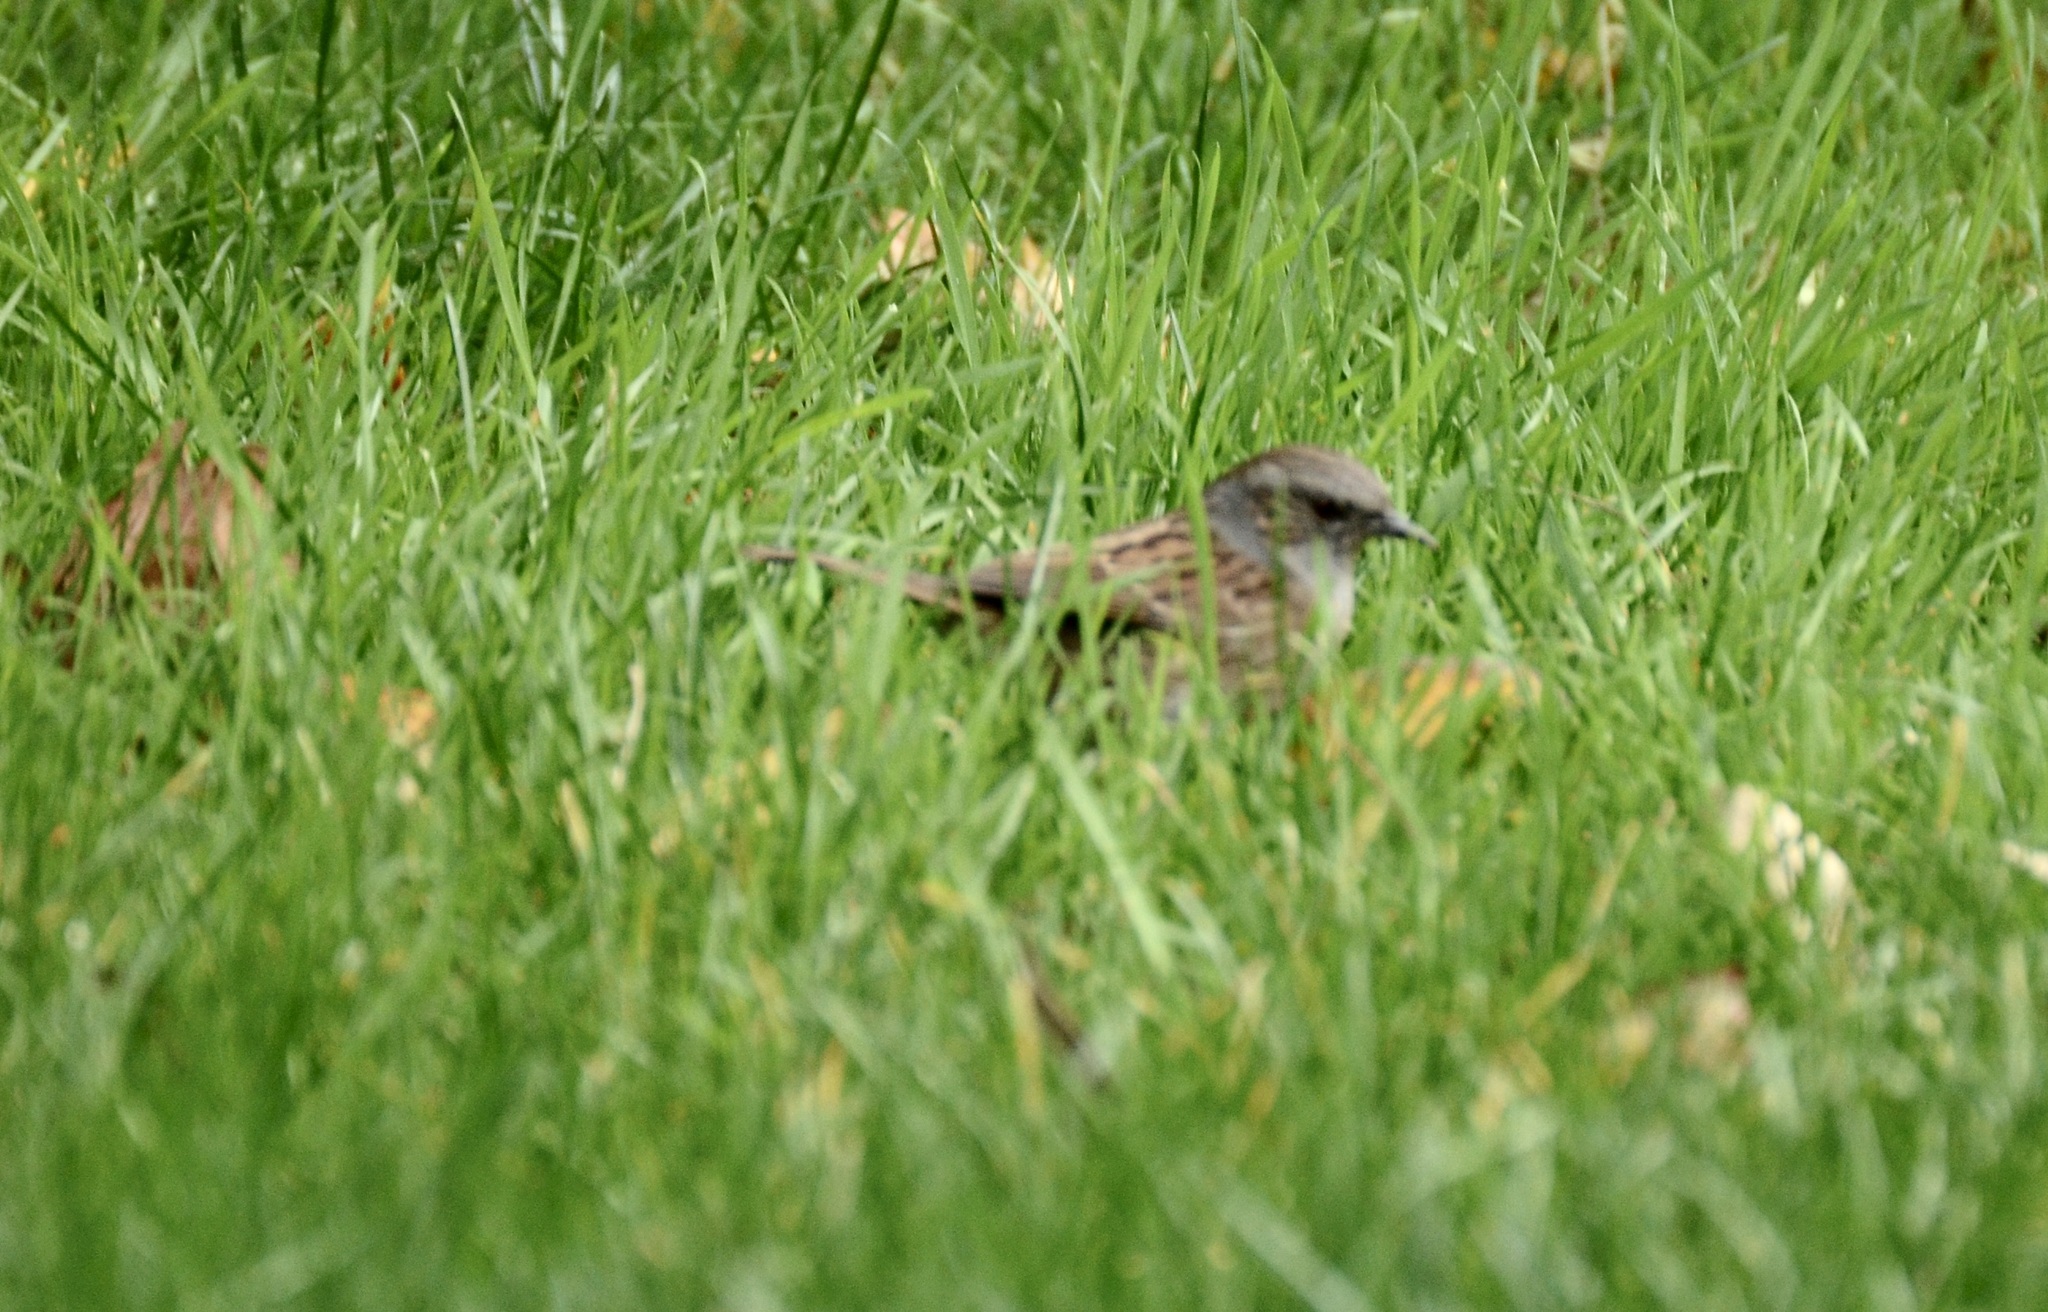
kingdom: Animalia
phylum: Chordata
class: Aves
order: Passeriformes
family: Prunellidae
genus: Prunella
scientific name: Prunella modularis
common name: Dunnock
